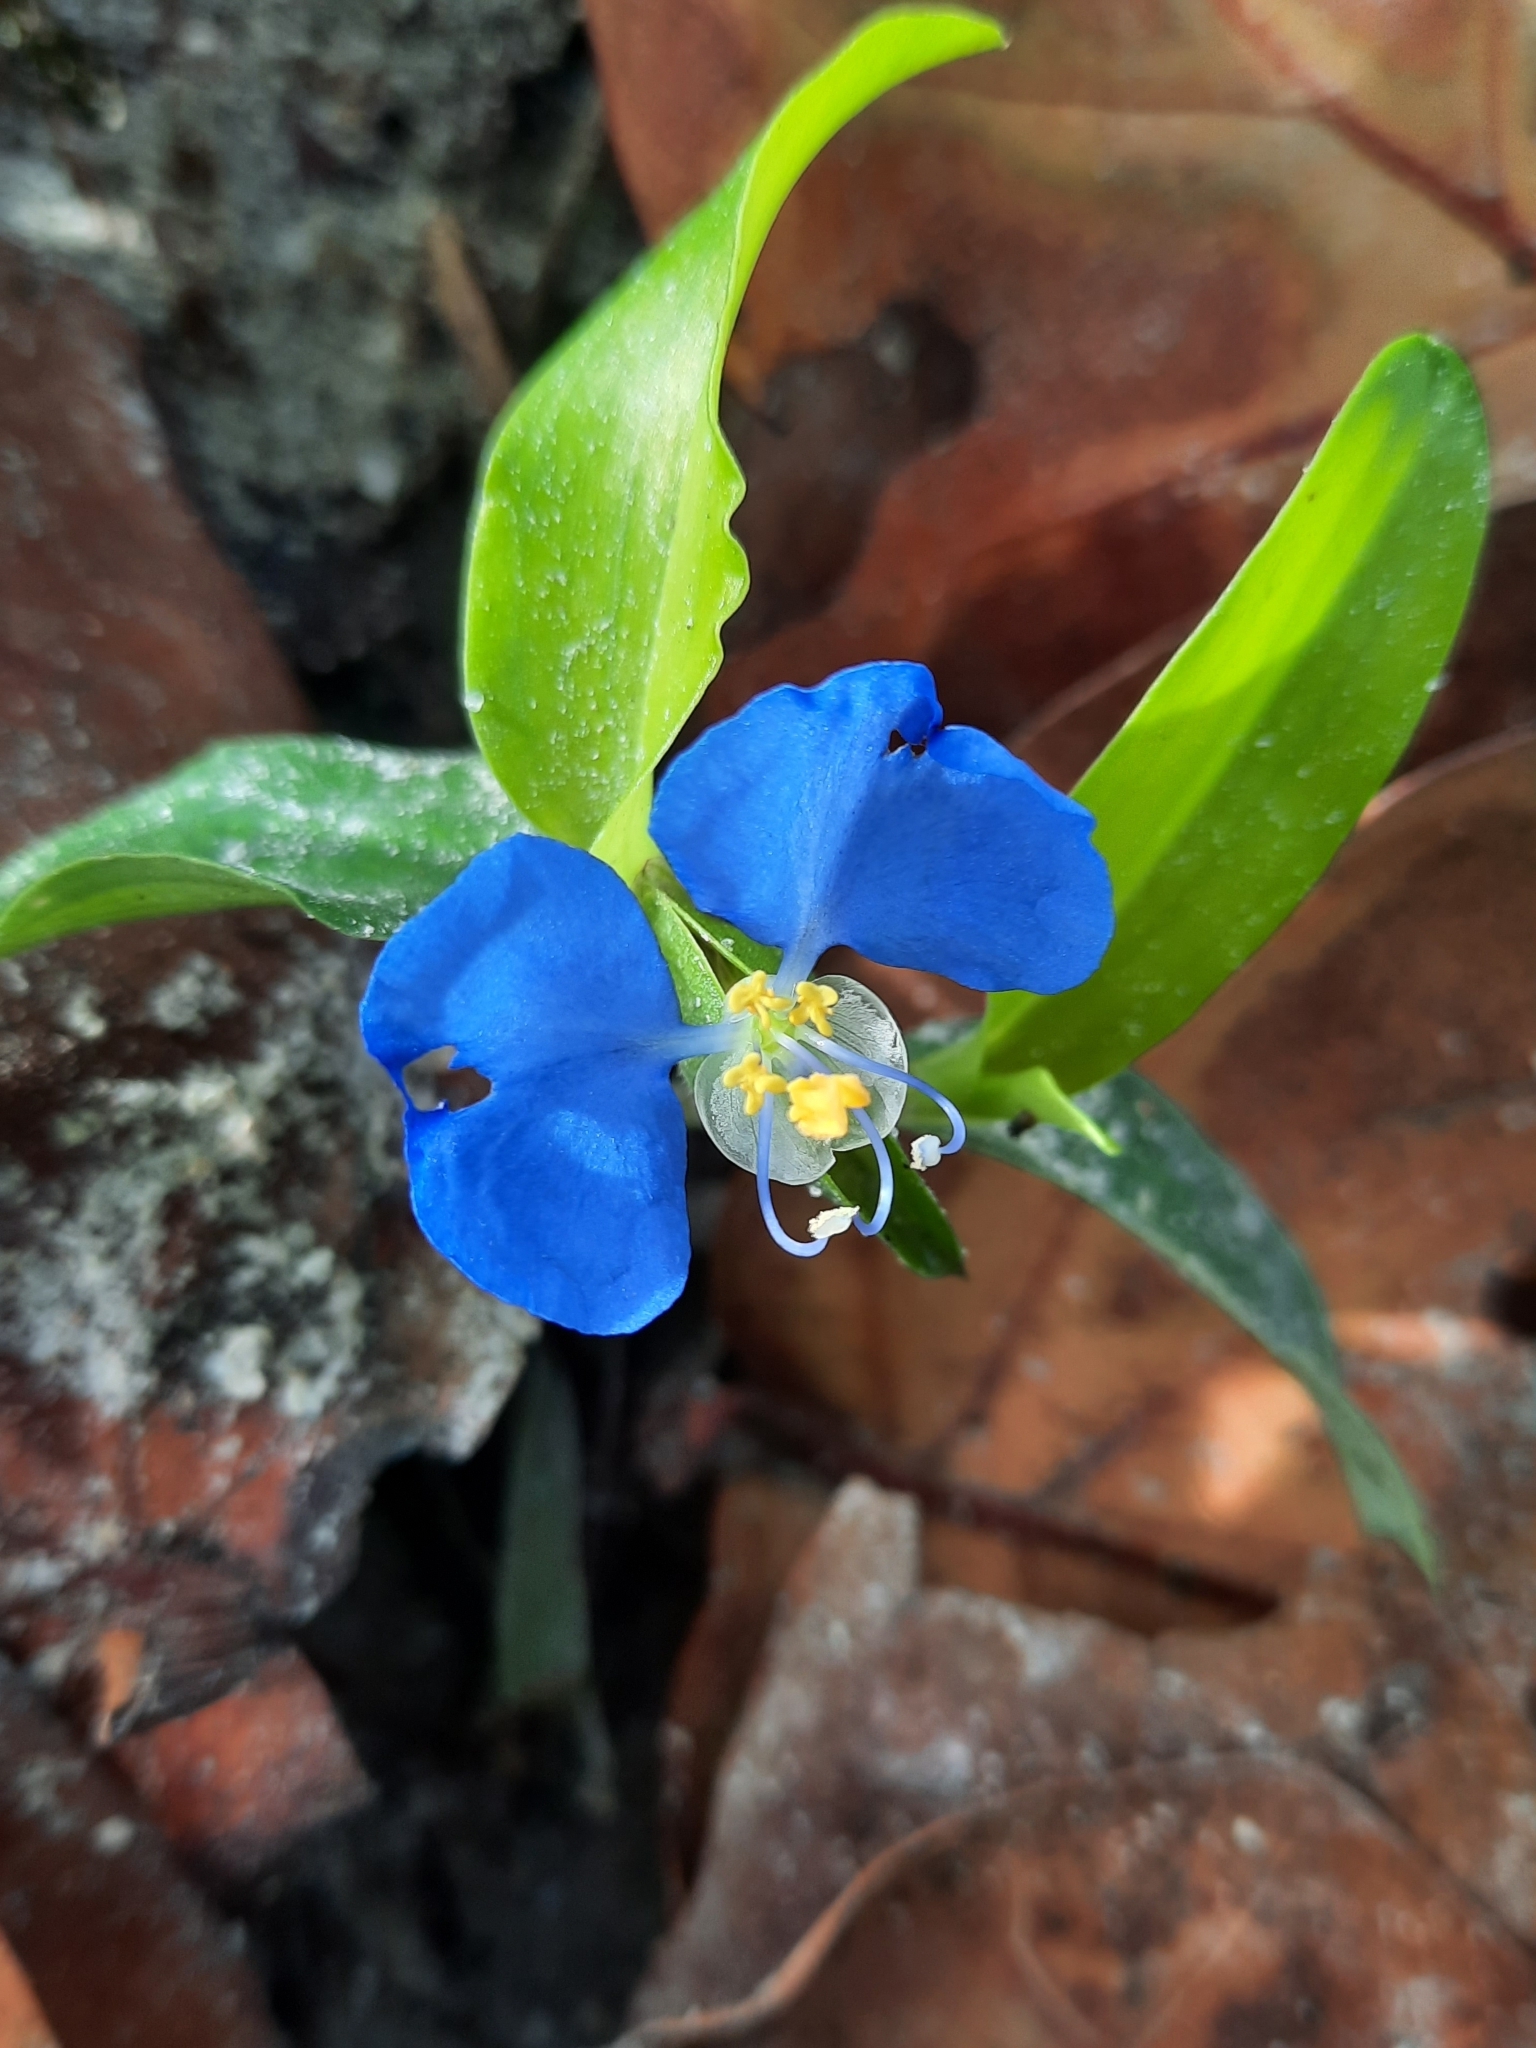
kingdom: Plantae
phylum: Tracheophyta
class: Liliopsida
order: Commelinales
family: Commelinaceae
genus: Commelina
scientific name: Commelina erecta
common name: Blousel blommetjie
